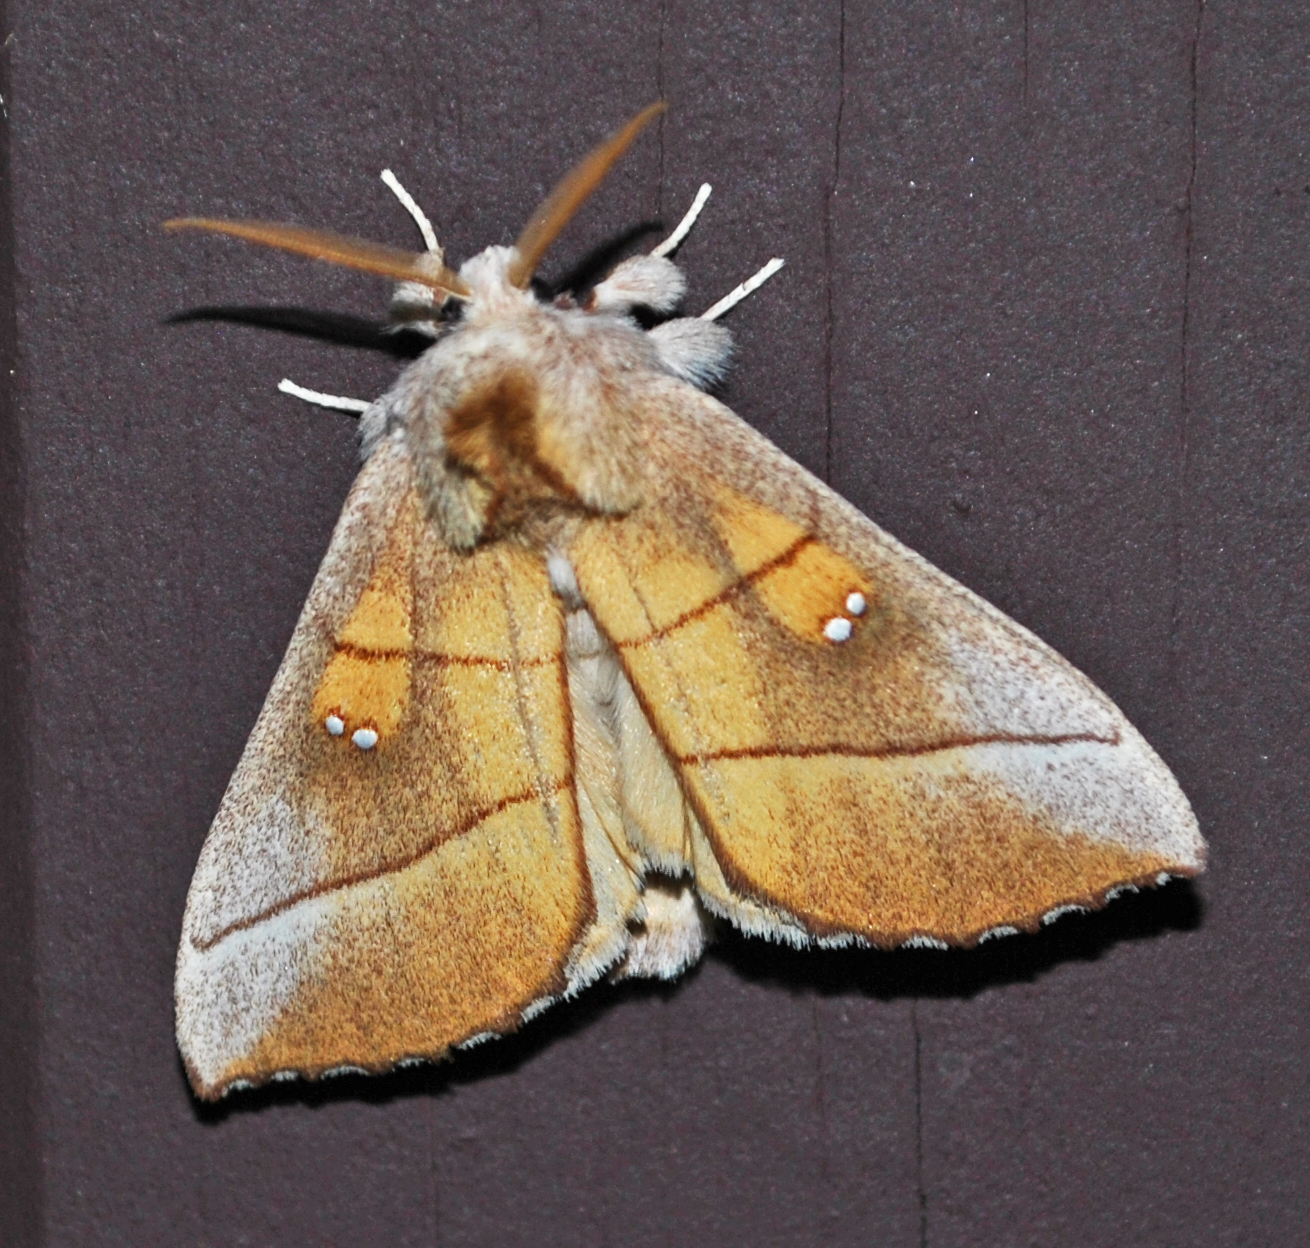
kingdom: Animalia
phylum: Arthropoda
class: Insecta
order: Lepidoptera
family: Notodontidae
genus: Nadata
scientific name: Nadata gibbosa
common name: White-dotted prominent
